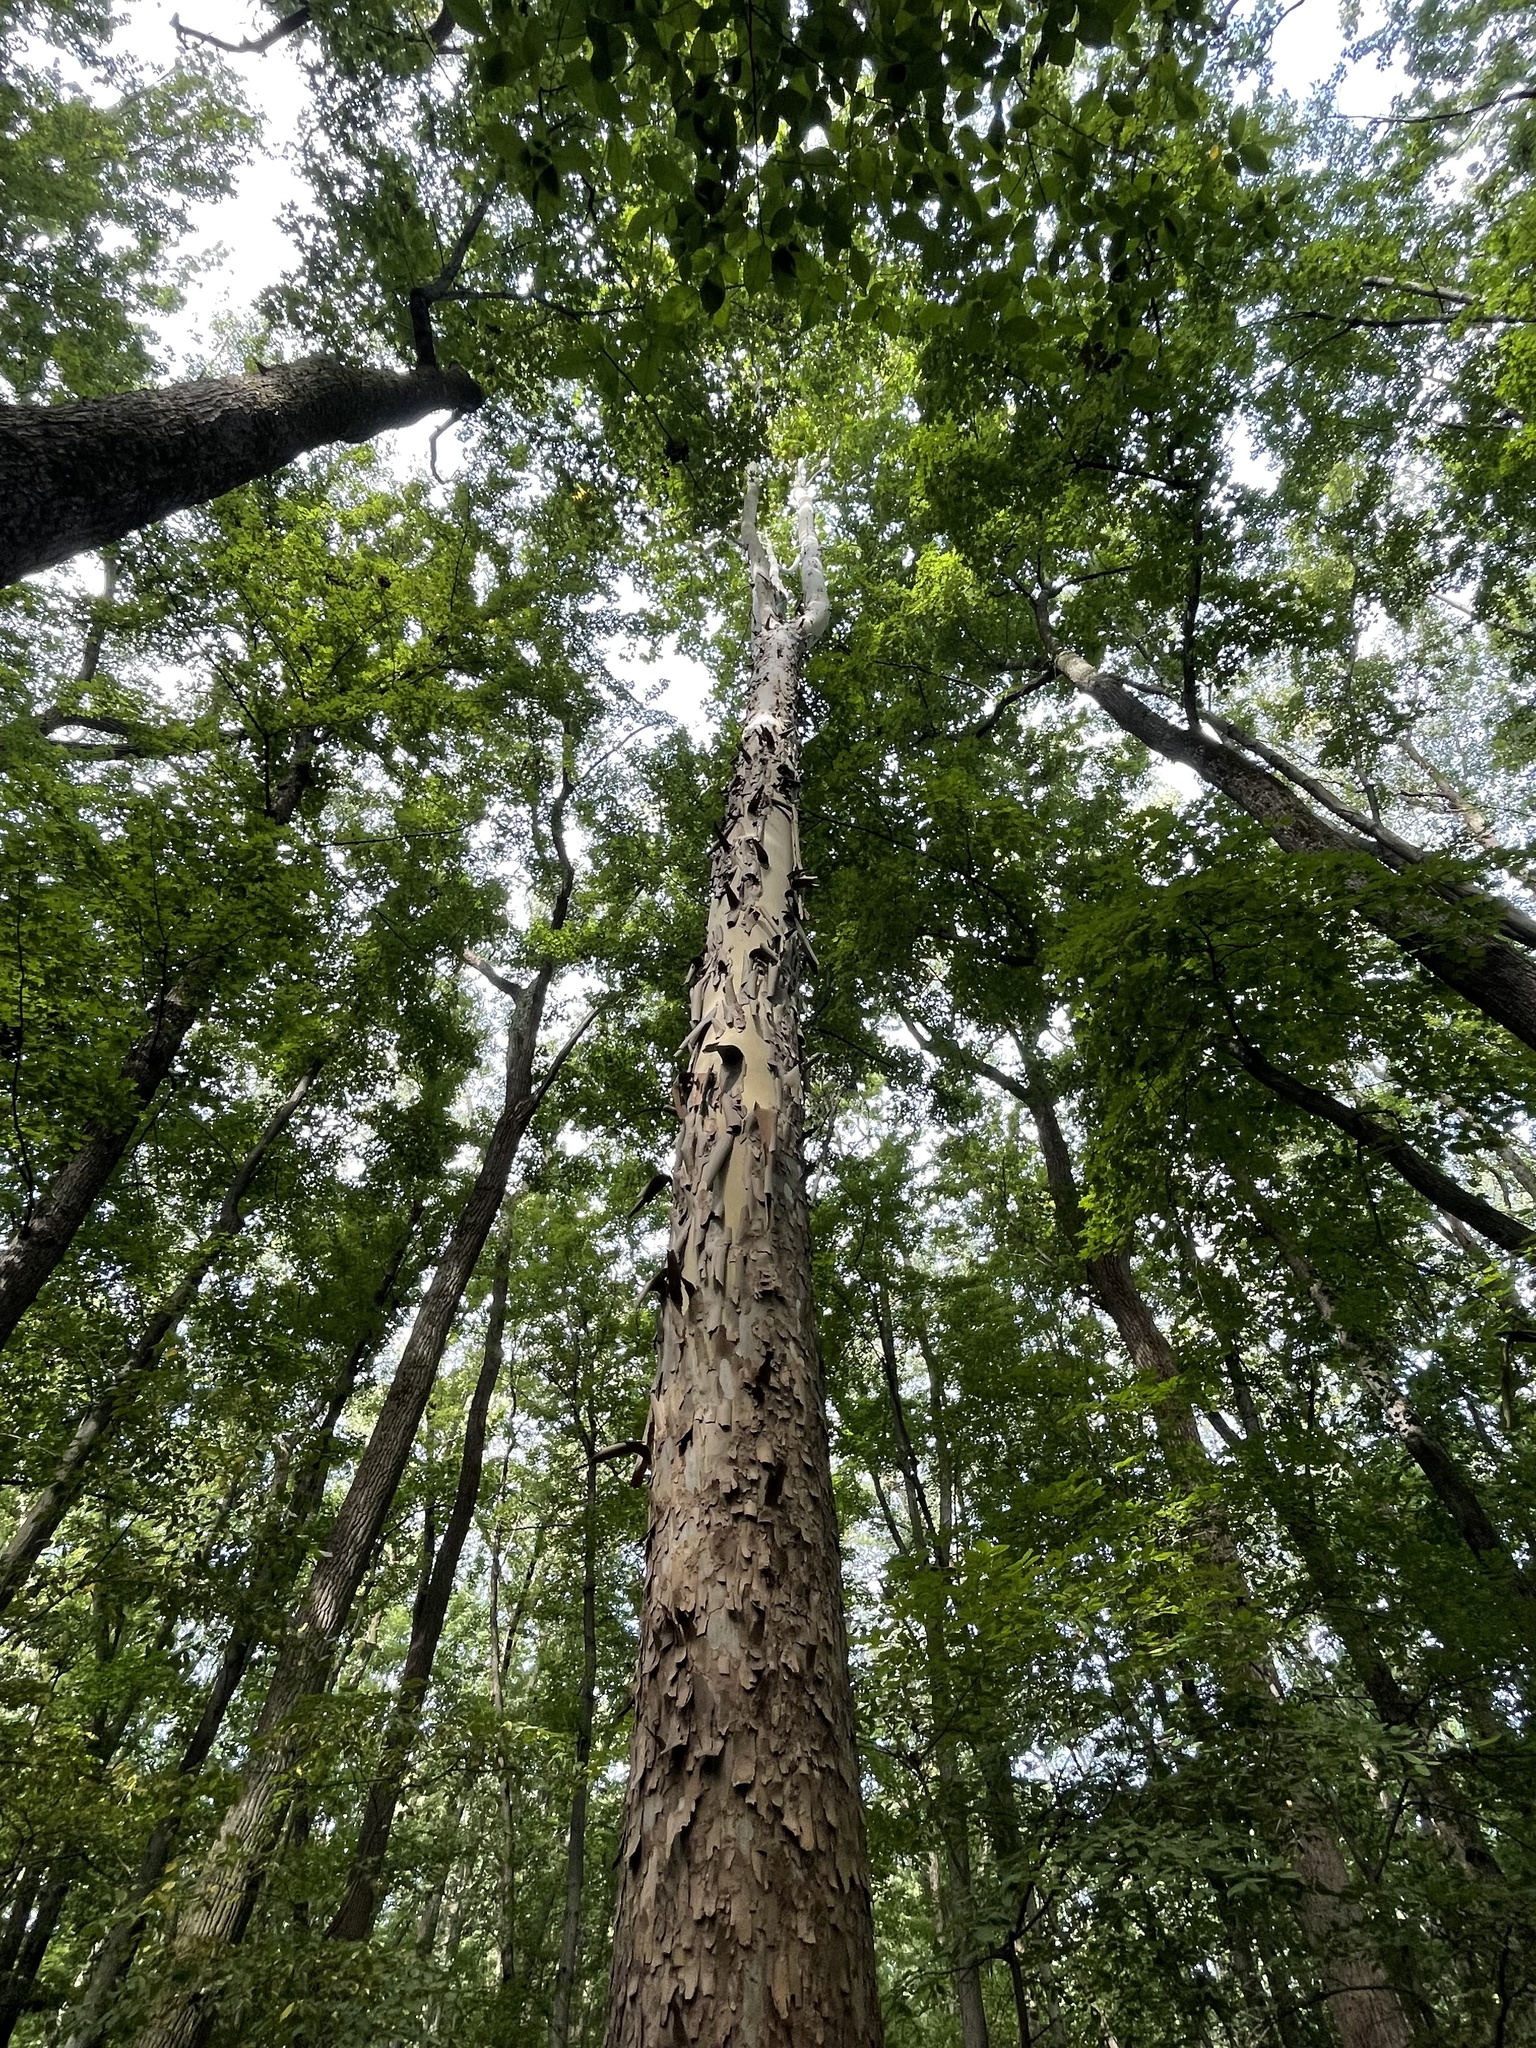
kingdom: Plantae
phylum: Tracheophyta
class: Magnoliopsida
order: Proteales
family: Platanaceae
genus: Platanus
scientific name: Platanus occidentalis
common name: American sycamore
